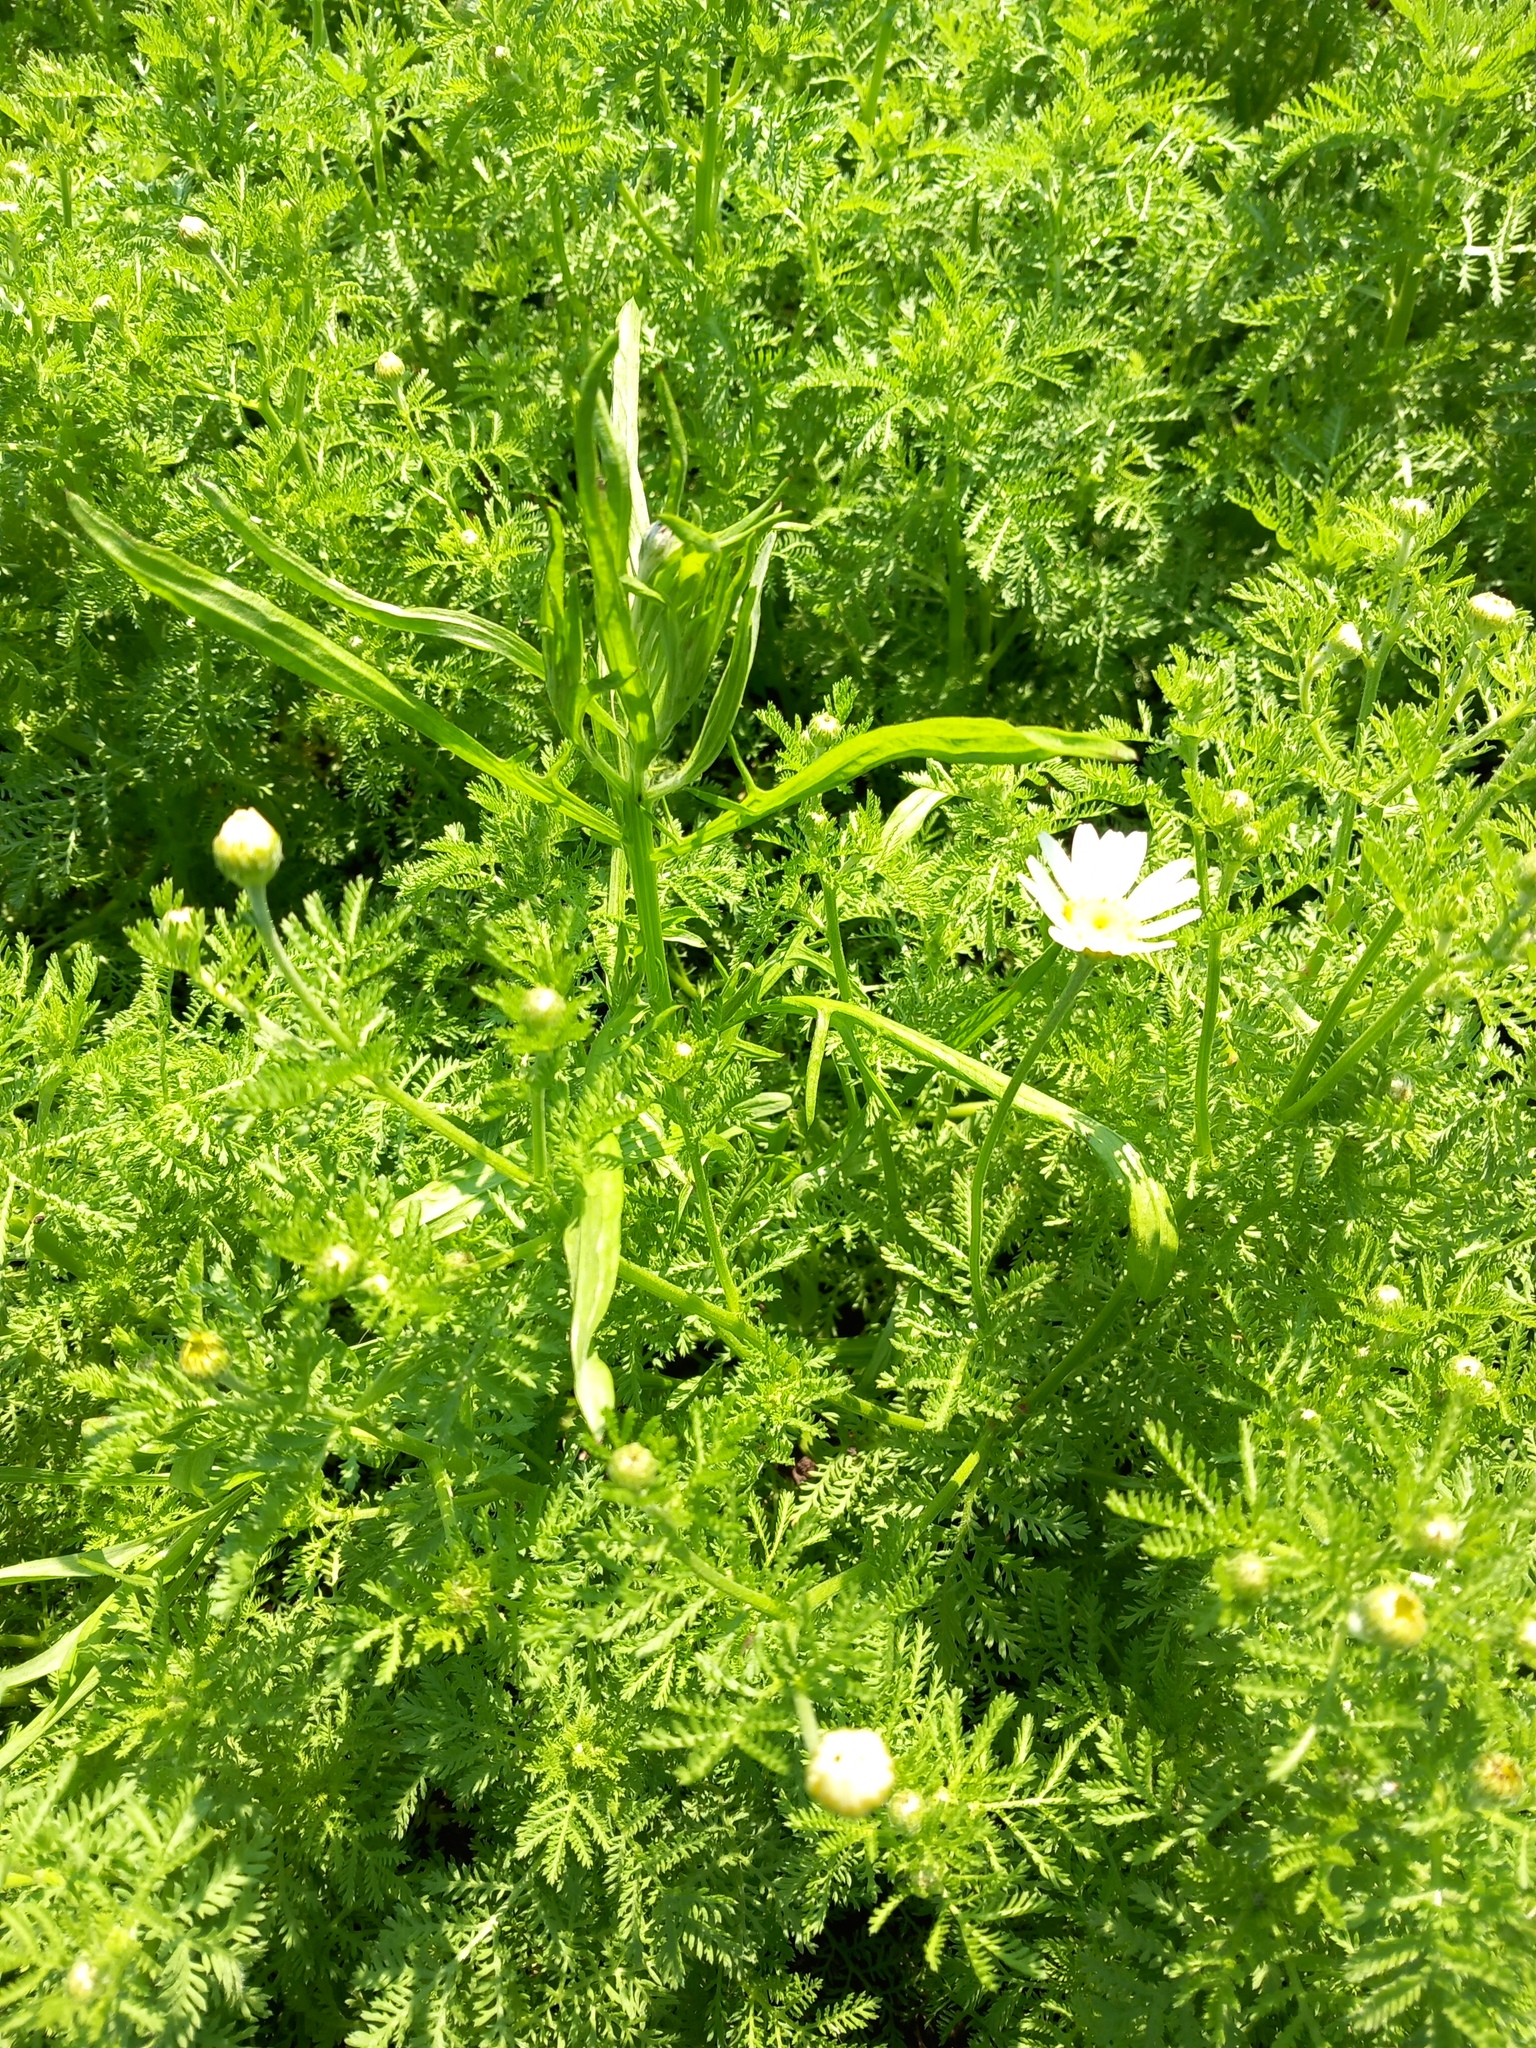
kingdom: Plantae
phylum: Tracheophyta
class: Magnoliopsida
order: Asterales
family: Asteraceae
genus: Cota
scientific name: Cota austriaca
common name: Austrian chamomile
